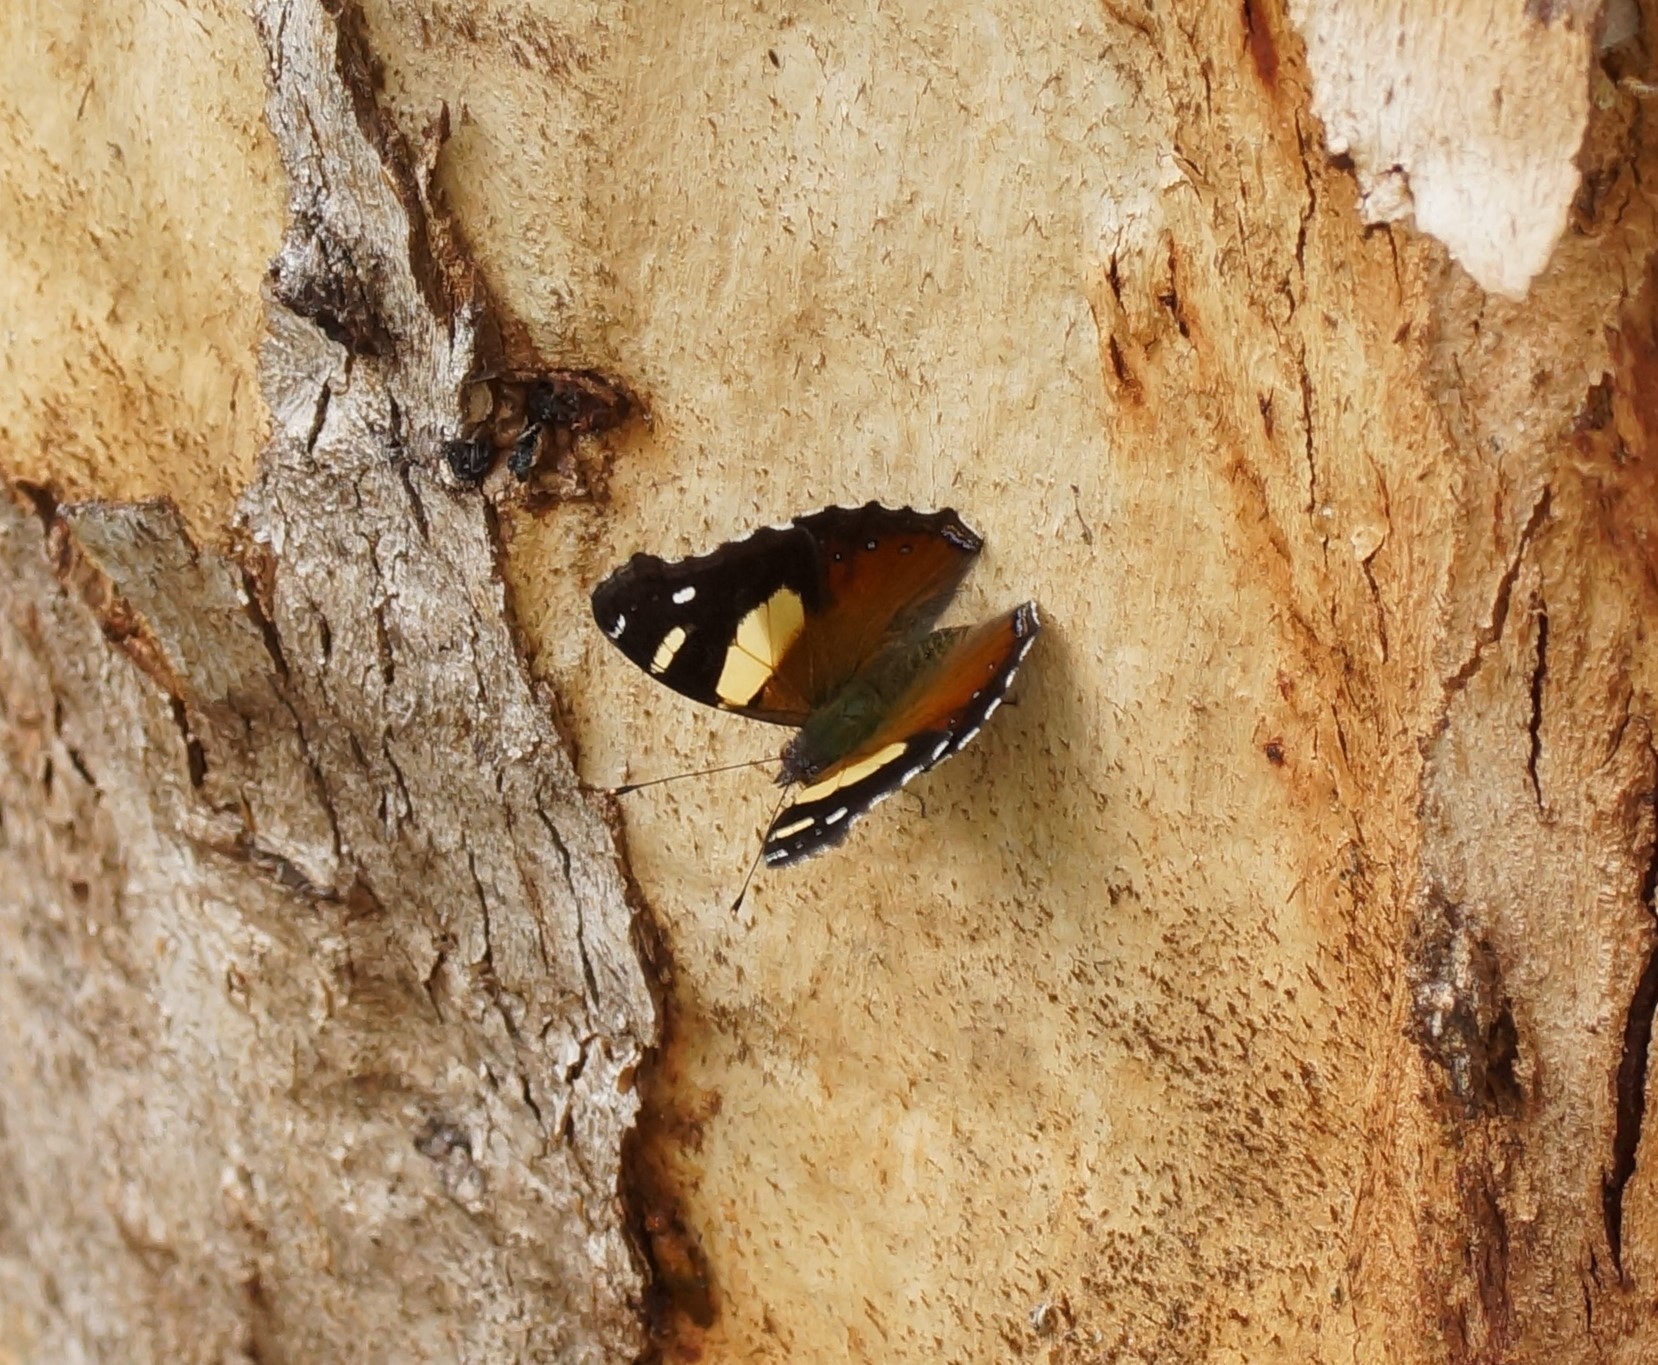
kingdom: Animalia
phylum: Arthropoda
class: Insecta
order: Lepidoptera
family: Nymphalidae
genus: Vanessa
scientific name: Vanessa itea
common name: Yellow admiral
